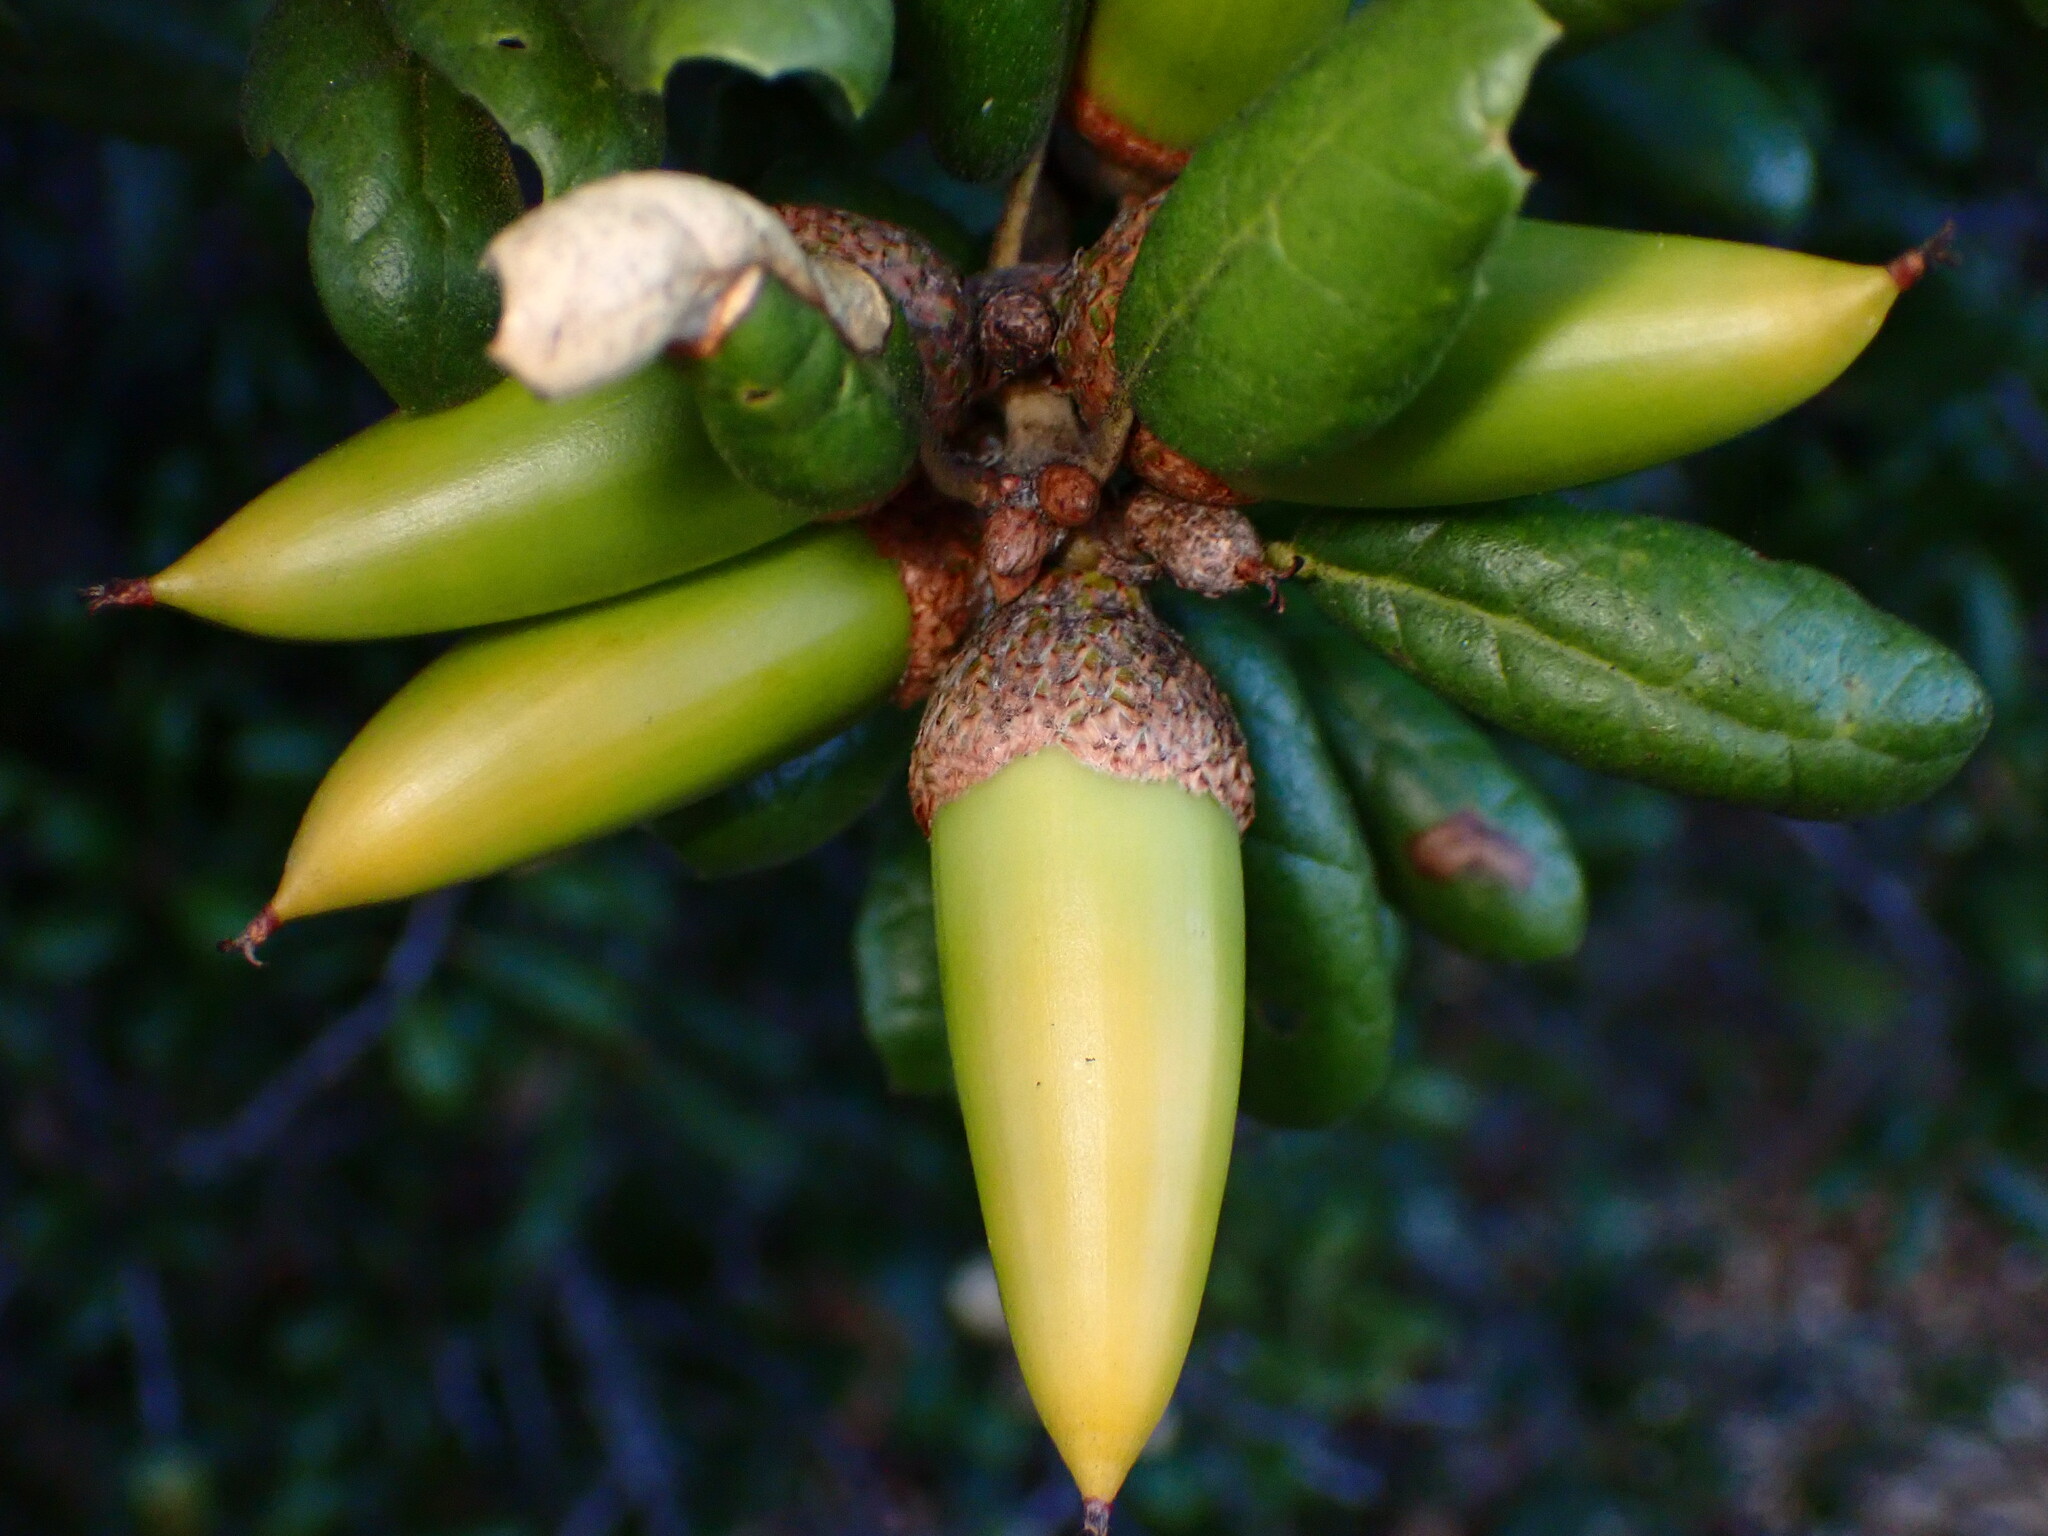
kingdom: Plantae
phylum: Tracheophyta
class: Magnoliopsida
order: Fagales
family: Fagaceae
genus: Quercus
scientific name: Quercus agrifolia
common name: California live oak
